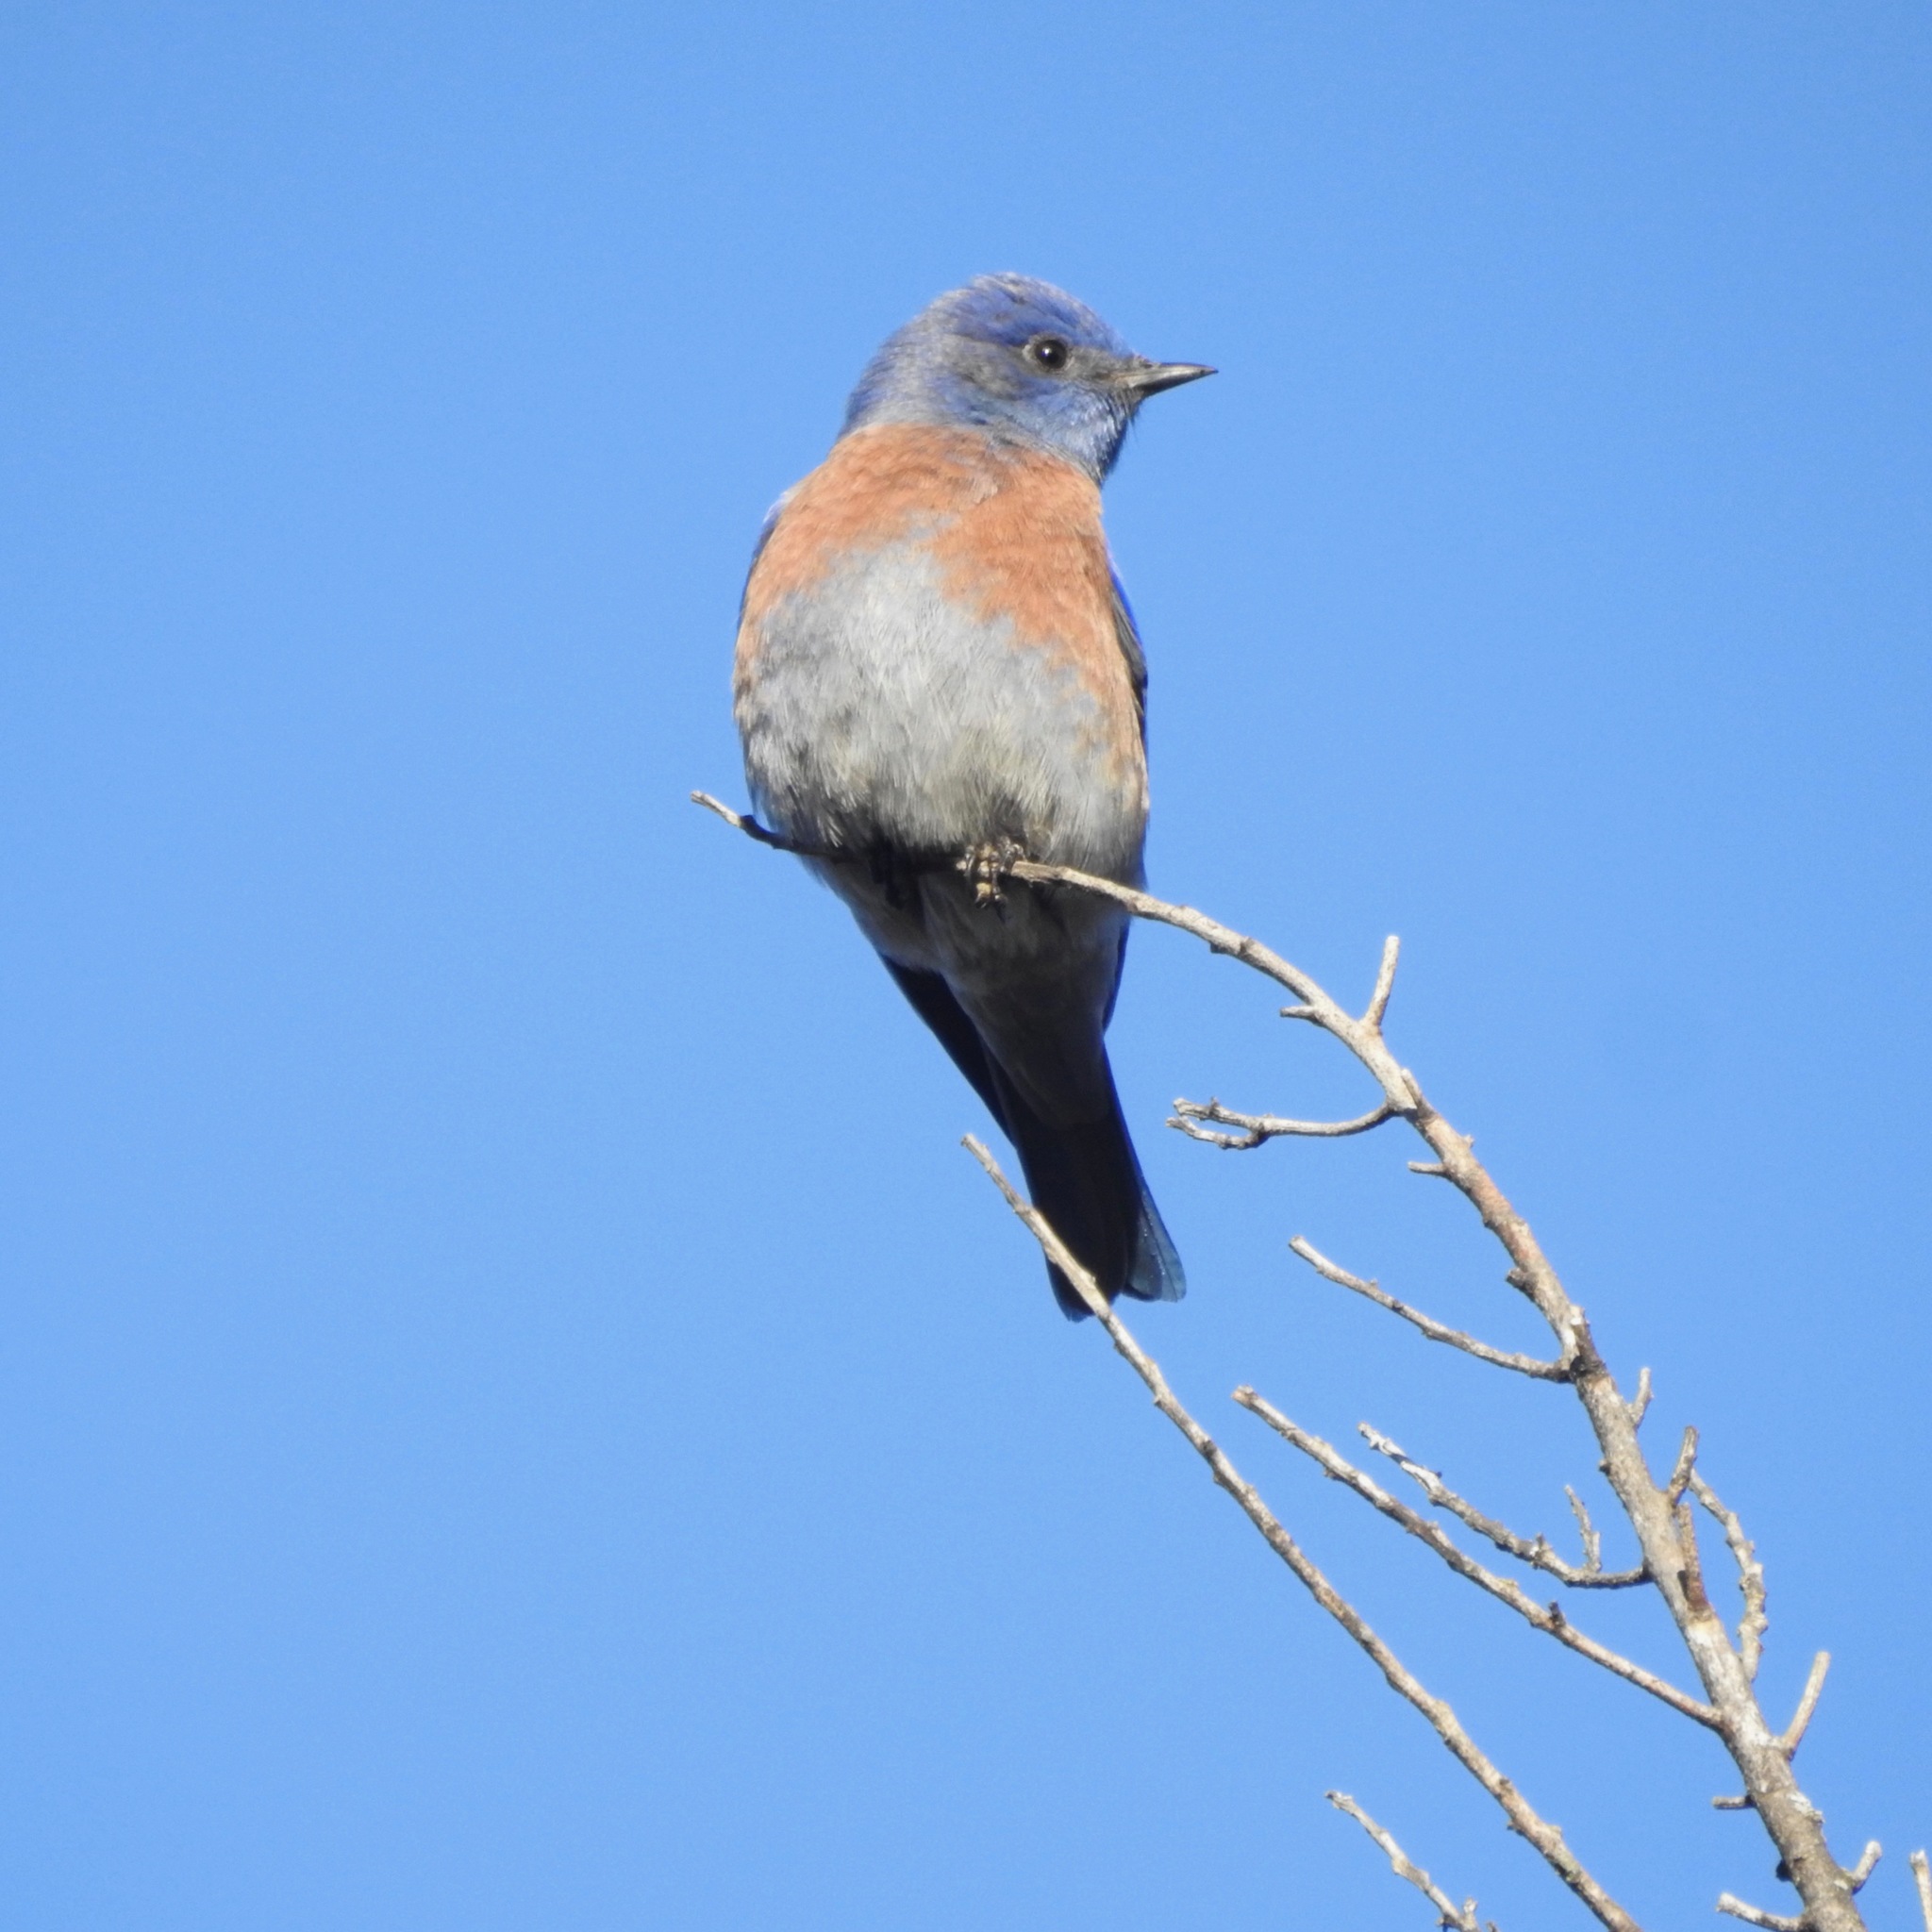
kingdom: Animalia
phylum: Chordata
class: Aves
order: Passeriformes
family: Turdidae
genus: Sialia
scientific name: Sialia mexicana
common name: Western bluebird
